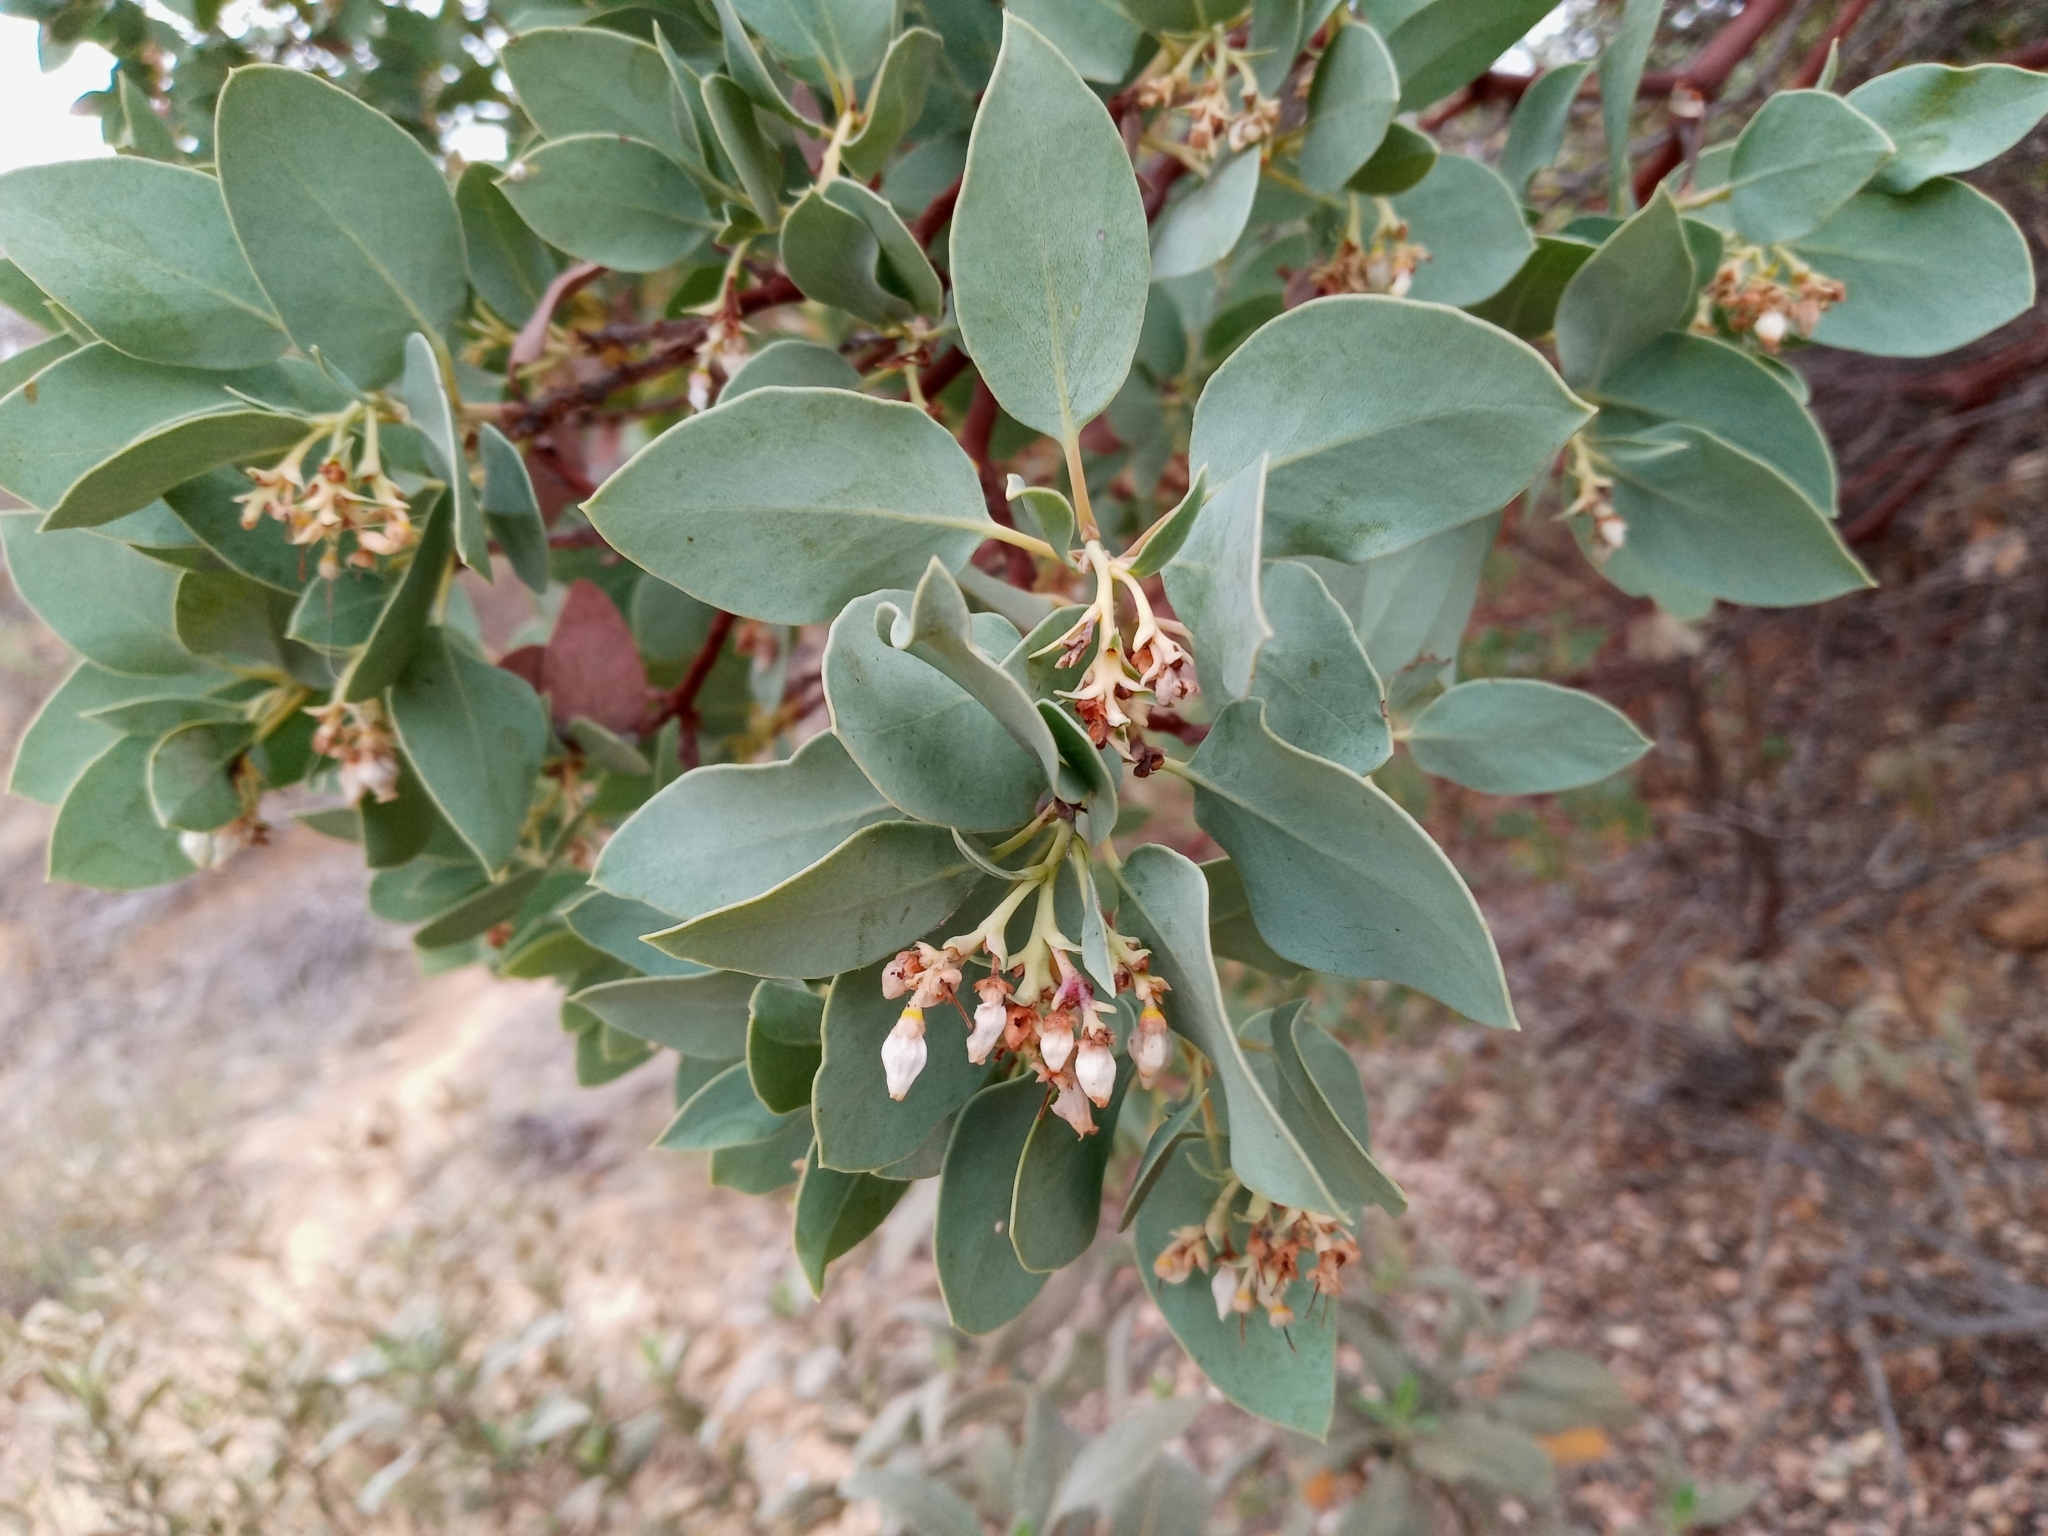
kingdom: Plantae
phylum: Tracheophyta
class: Magnoliopsida
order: Ericales
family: Ericaceae
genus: Arctostaphylos
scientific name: Arctostaphylos glauca
